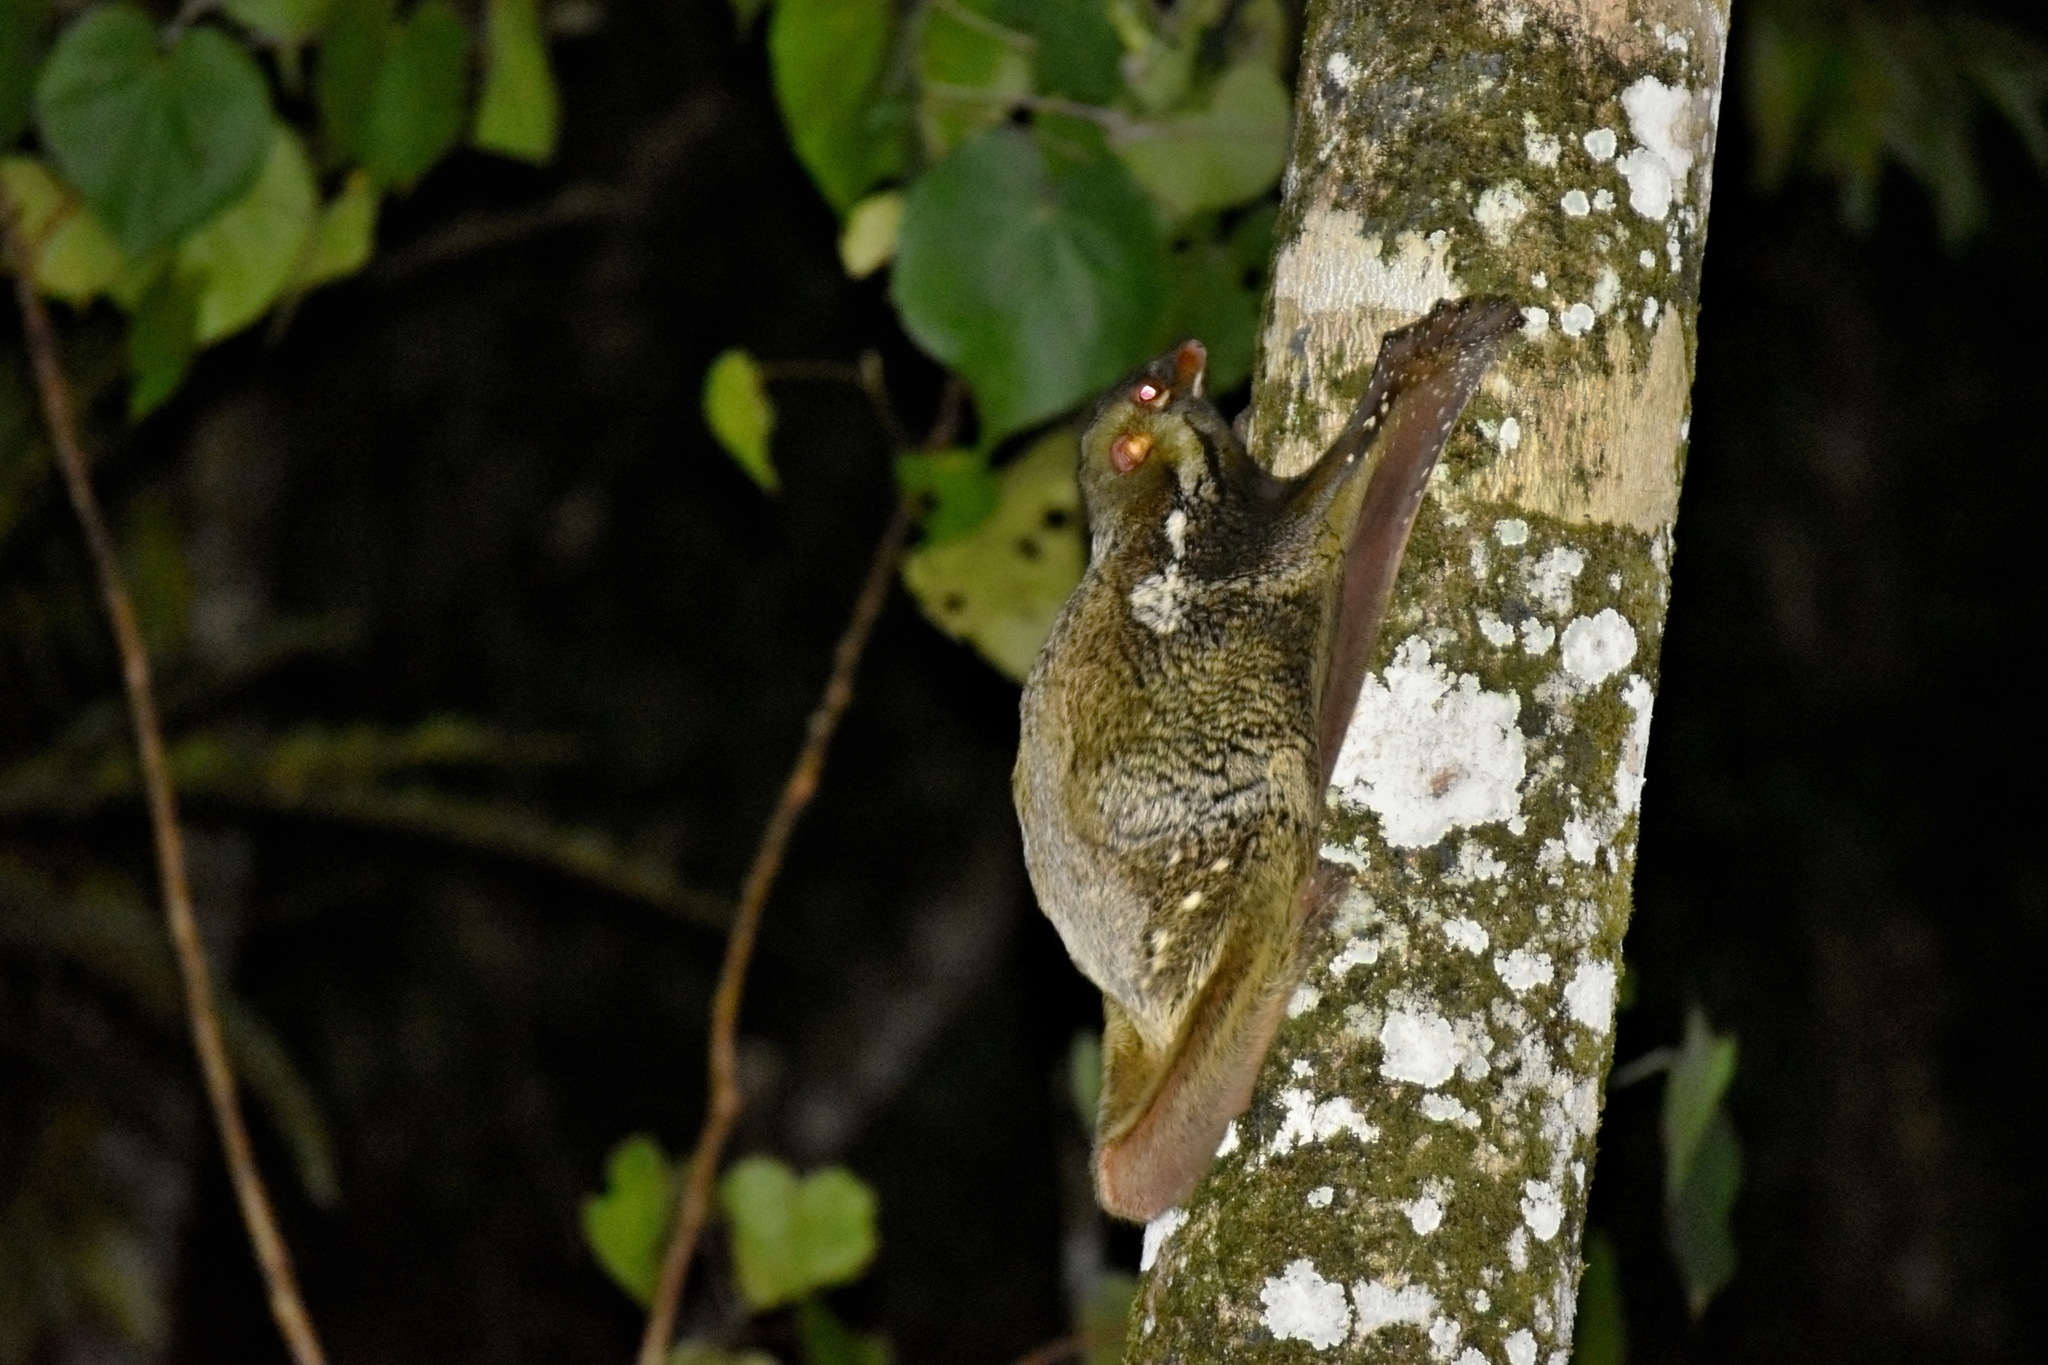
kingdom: Animalia
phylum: Chordata
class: Mammalia
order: Dermoptera
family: Cynocephalidae
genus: Galeopterus
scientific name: Galeopterus variegatus
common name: Sunda flying lemur
